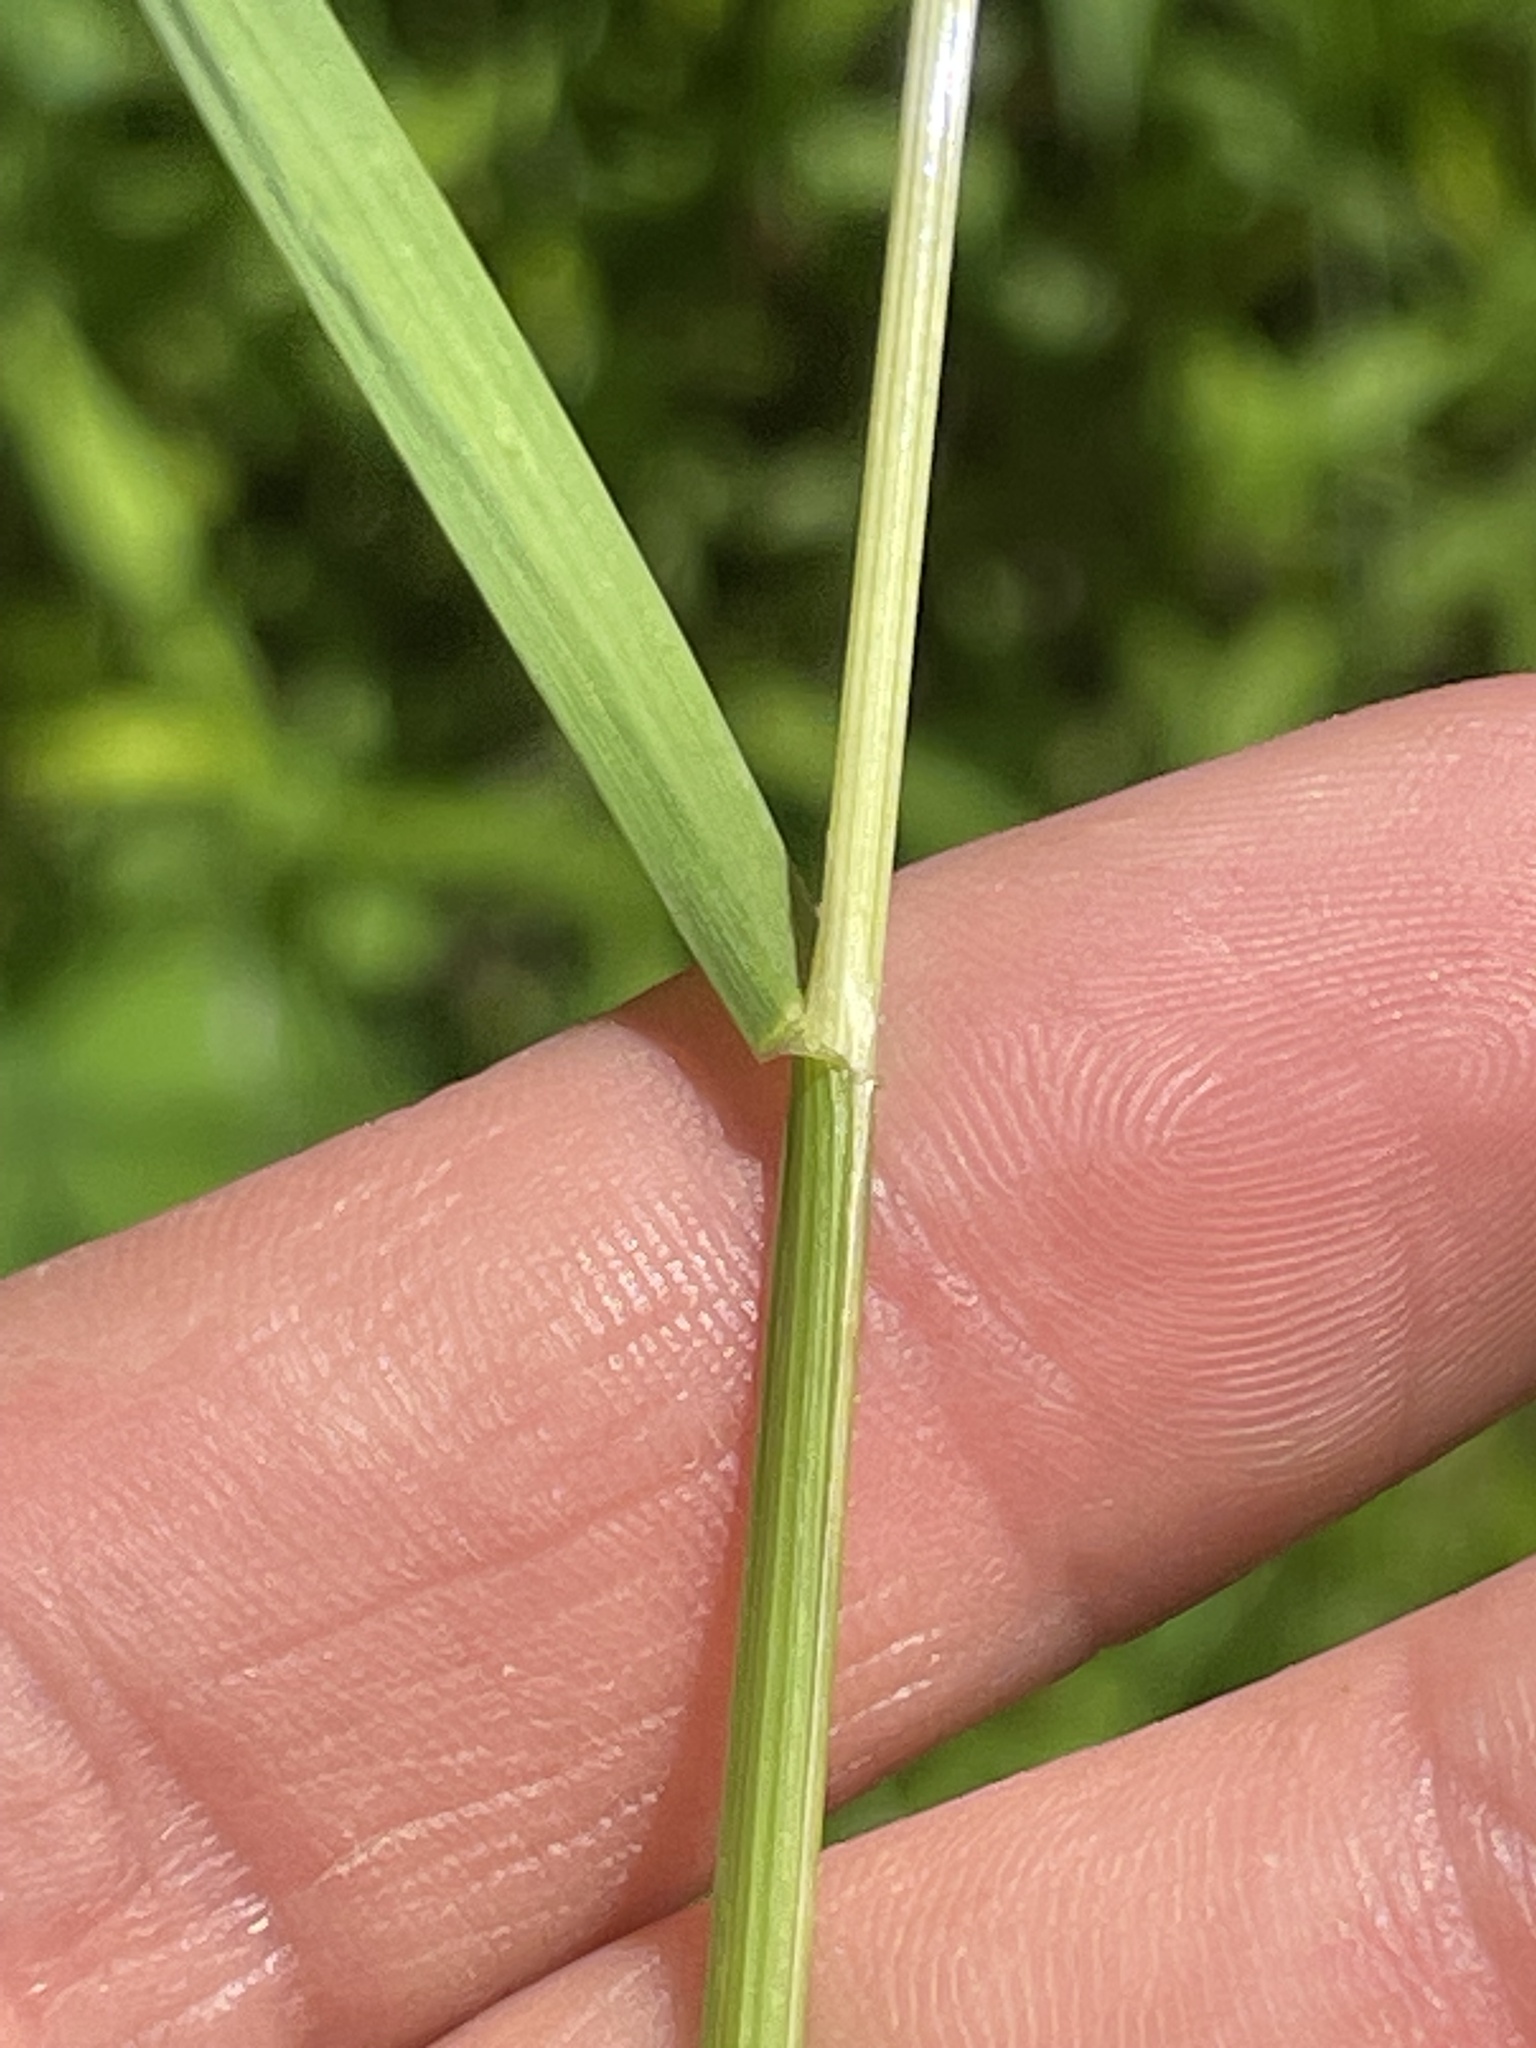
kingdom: Plantae
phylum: Tracheophyta
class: Liliopsida
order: Poales
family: Poaceae
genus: Poa
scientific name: Poa trivialis
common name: Rough bluegrass
